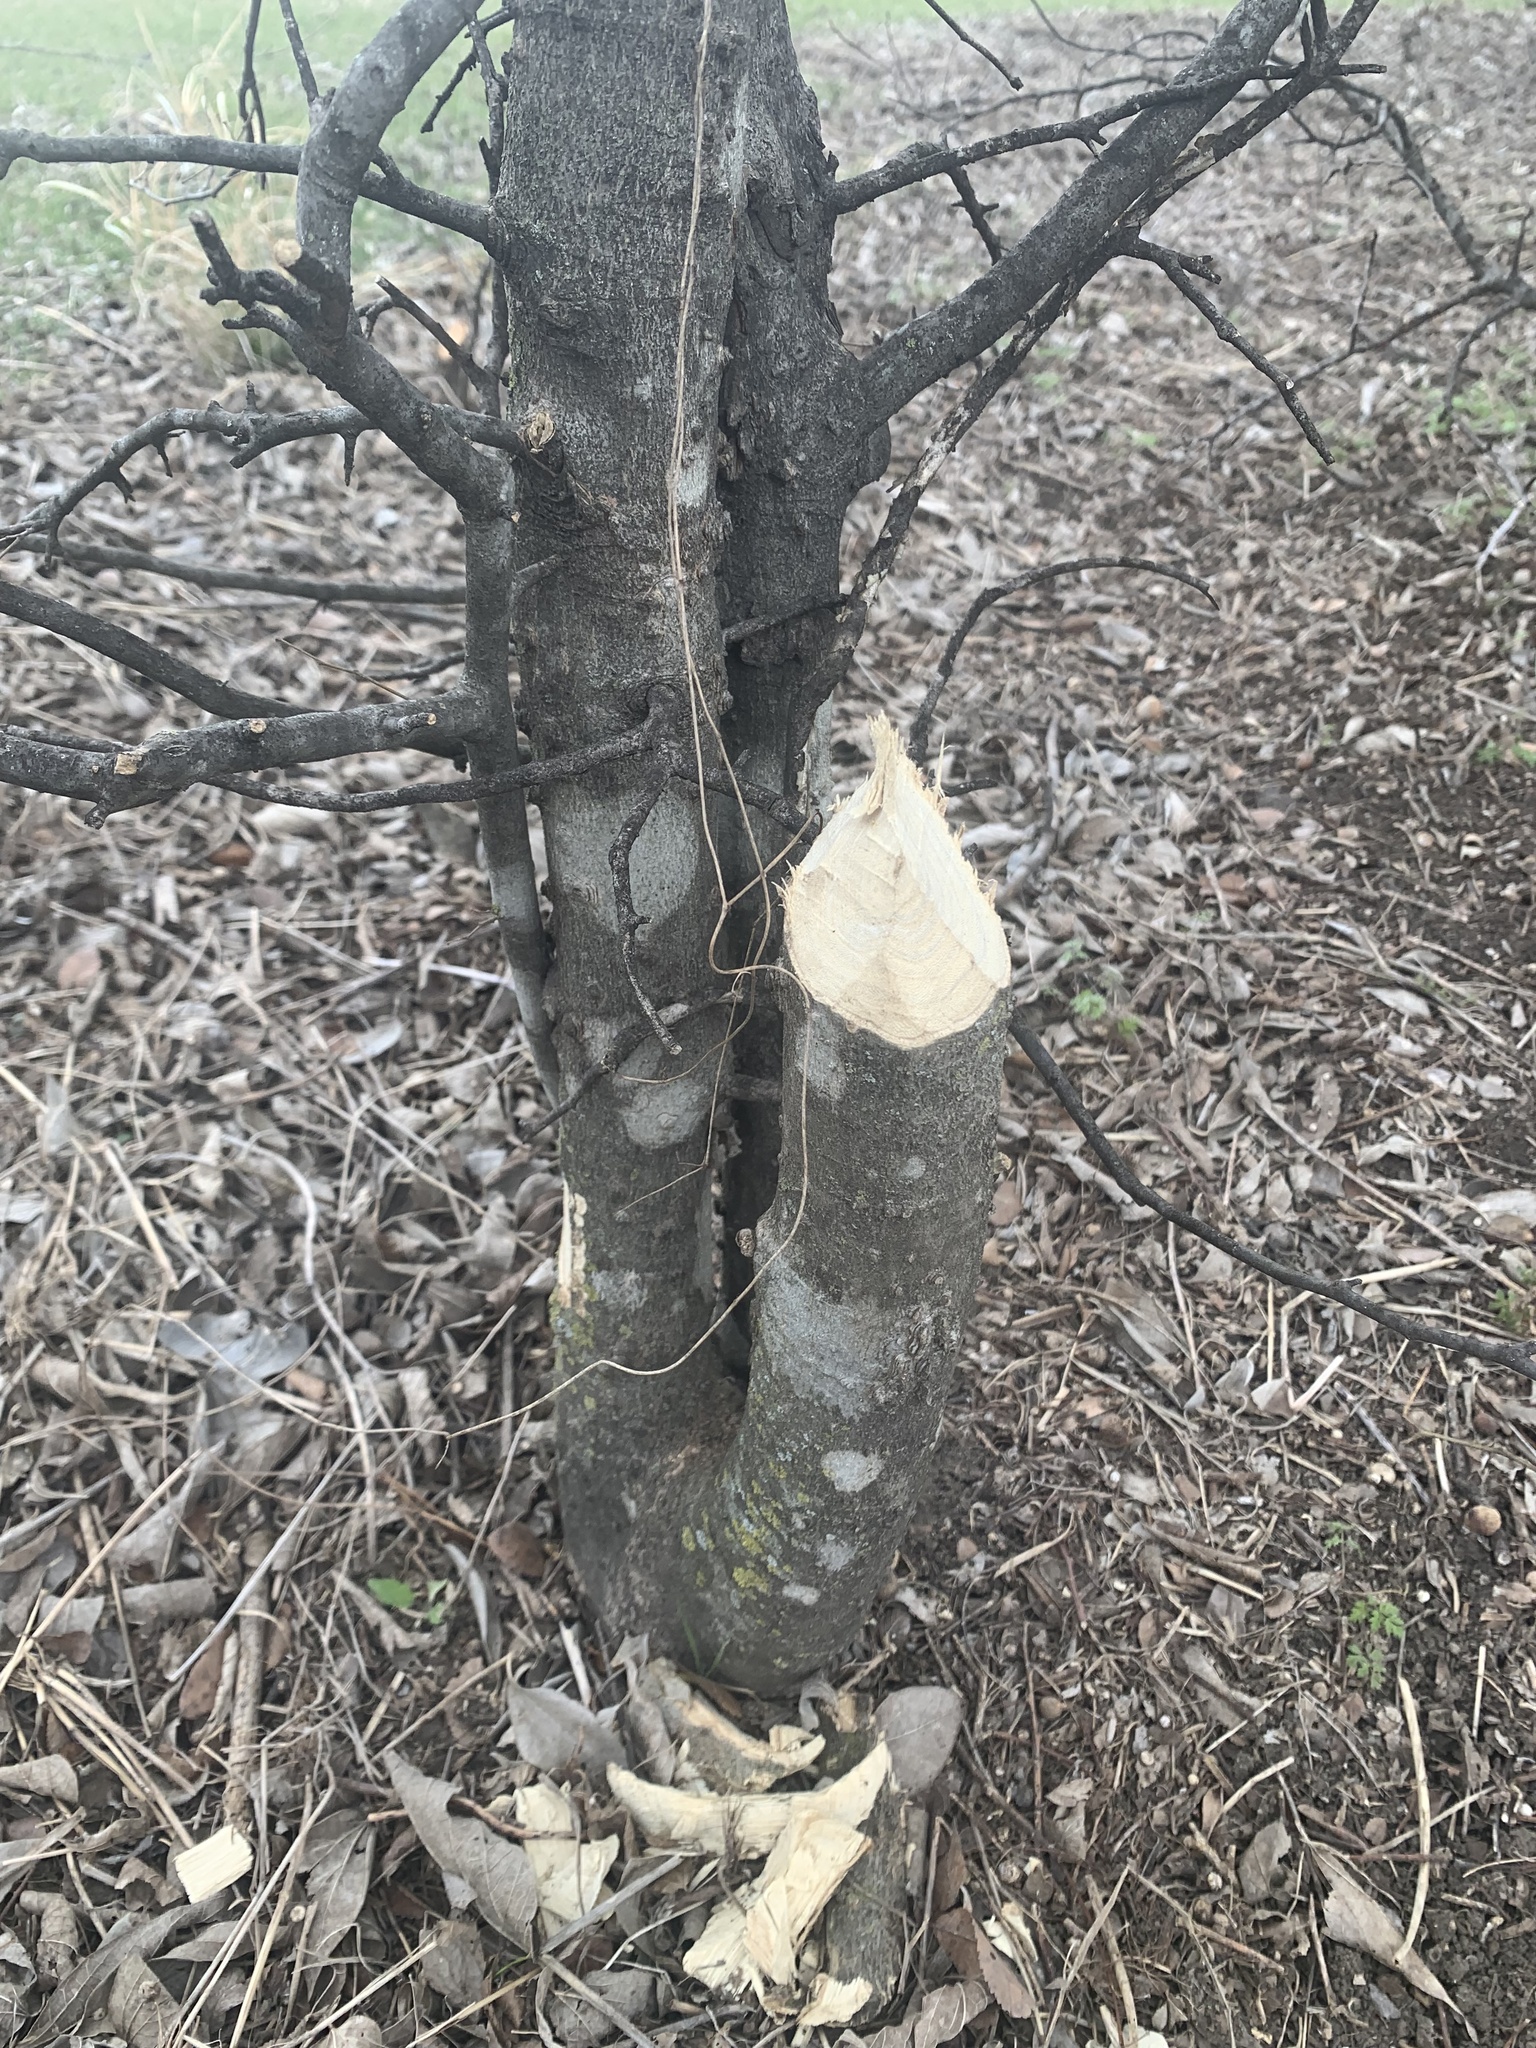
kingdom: Animalia
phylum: Chordata
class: Mammalia
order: Rodentia
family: Castoridae
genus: Castor
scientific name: Castor canadensis
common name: American beaver
